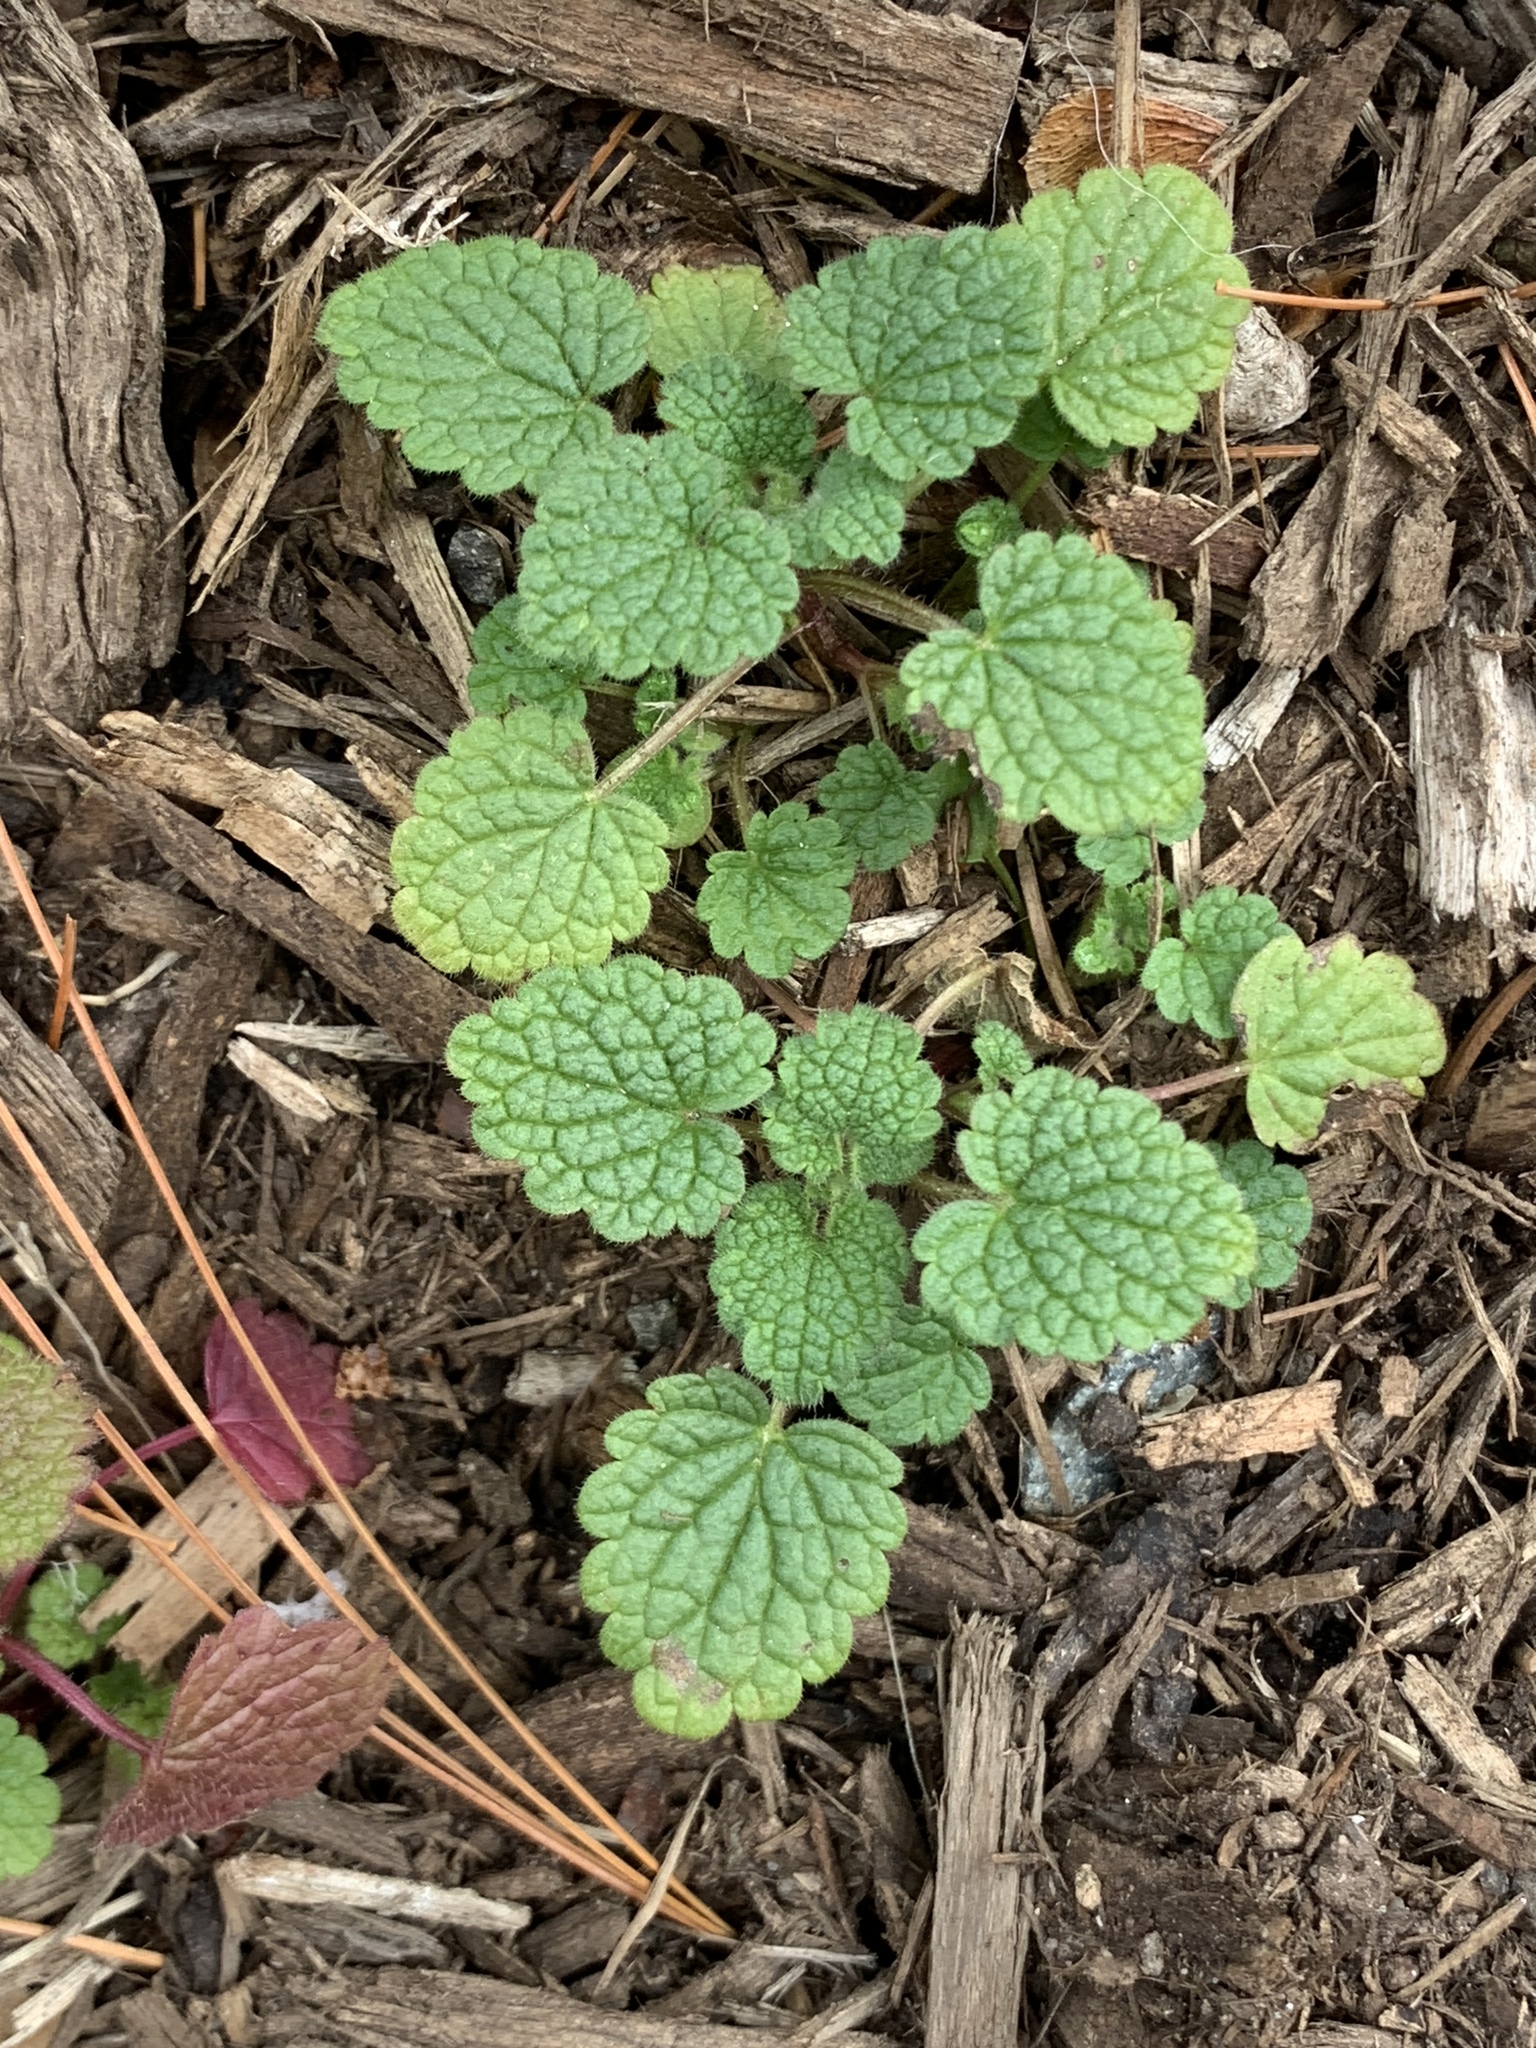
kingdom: Plantae
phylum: Tracheophyta
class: Magnoliopsida
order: Lamiales
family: Lamiaceae
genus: Lamium
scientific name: Lamium purpureum
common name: Red dead-nettle
